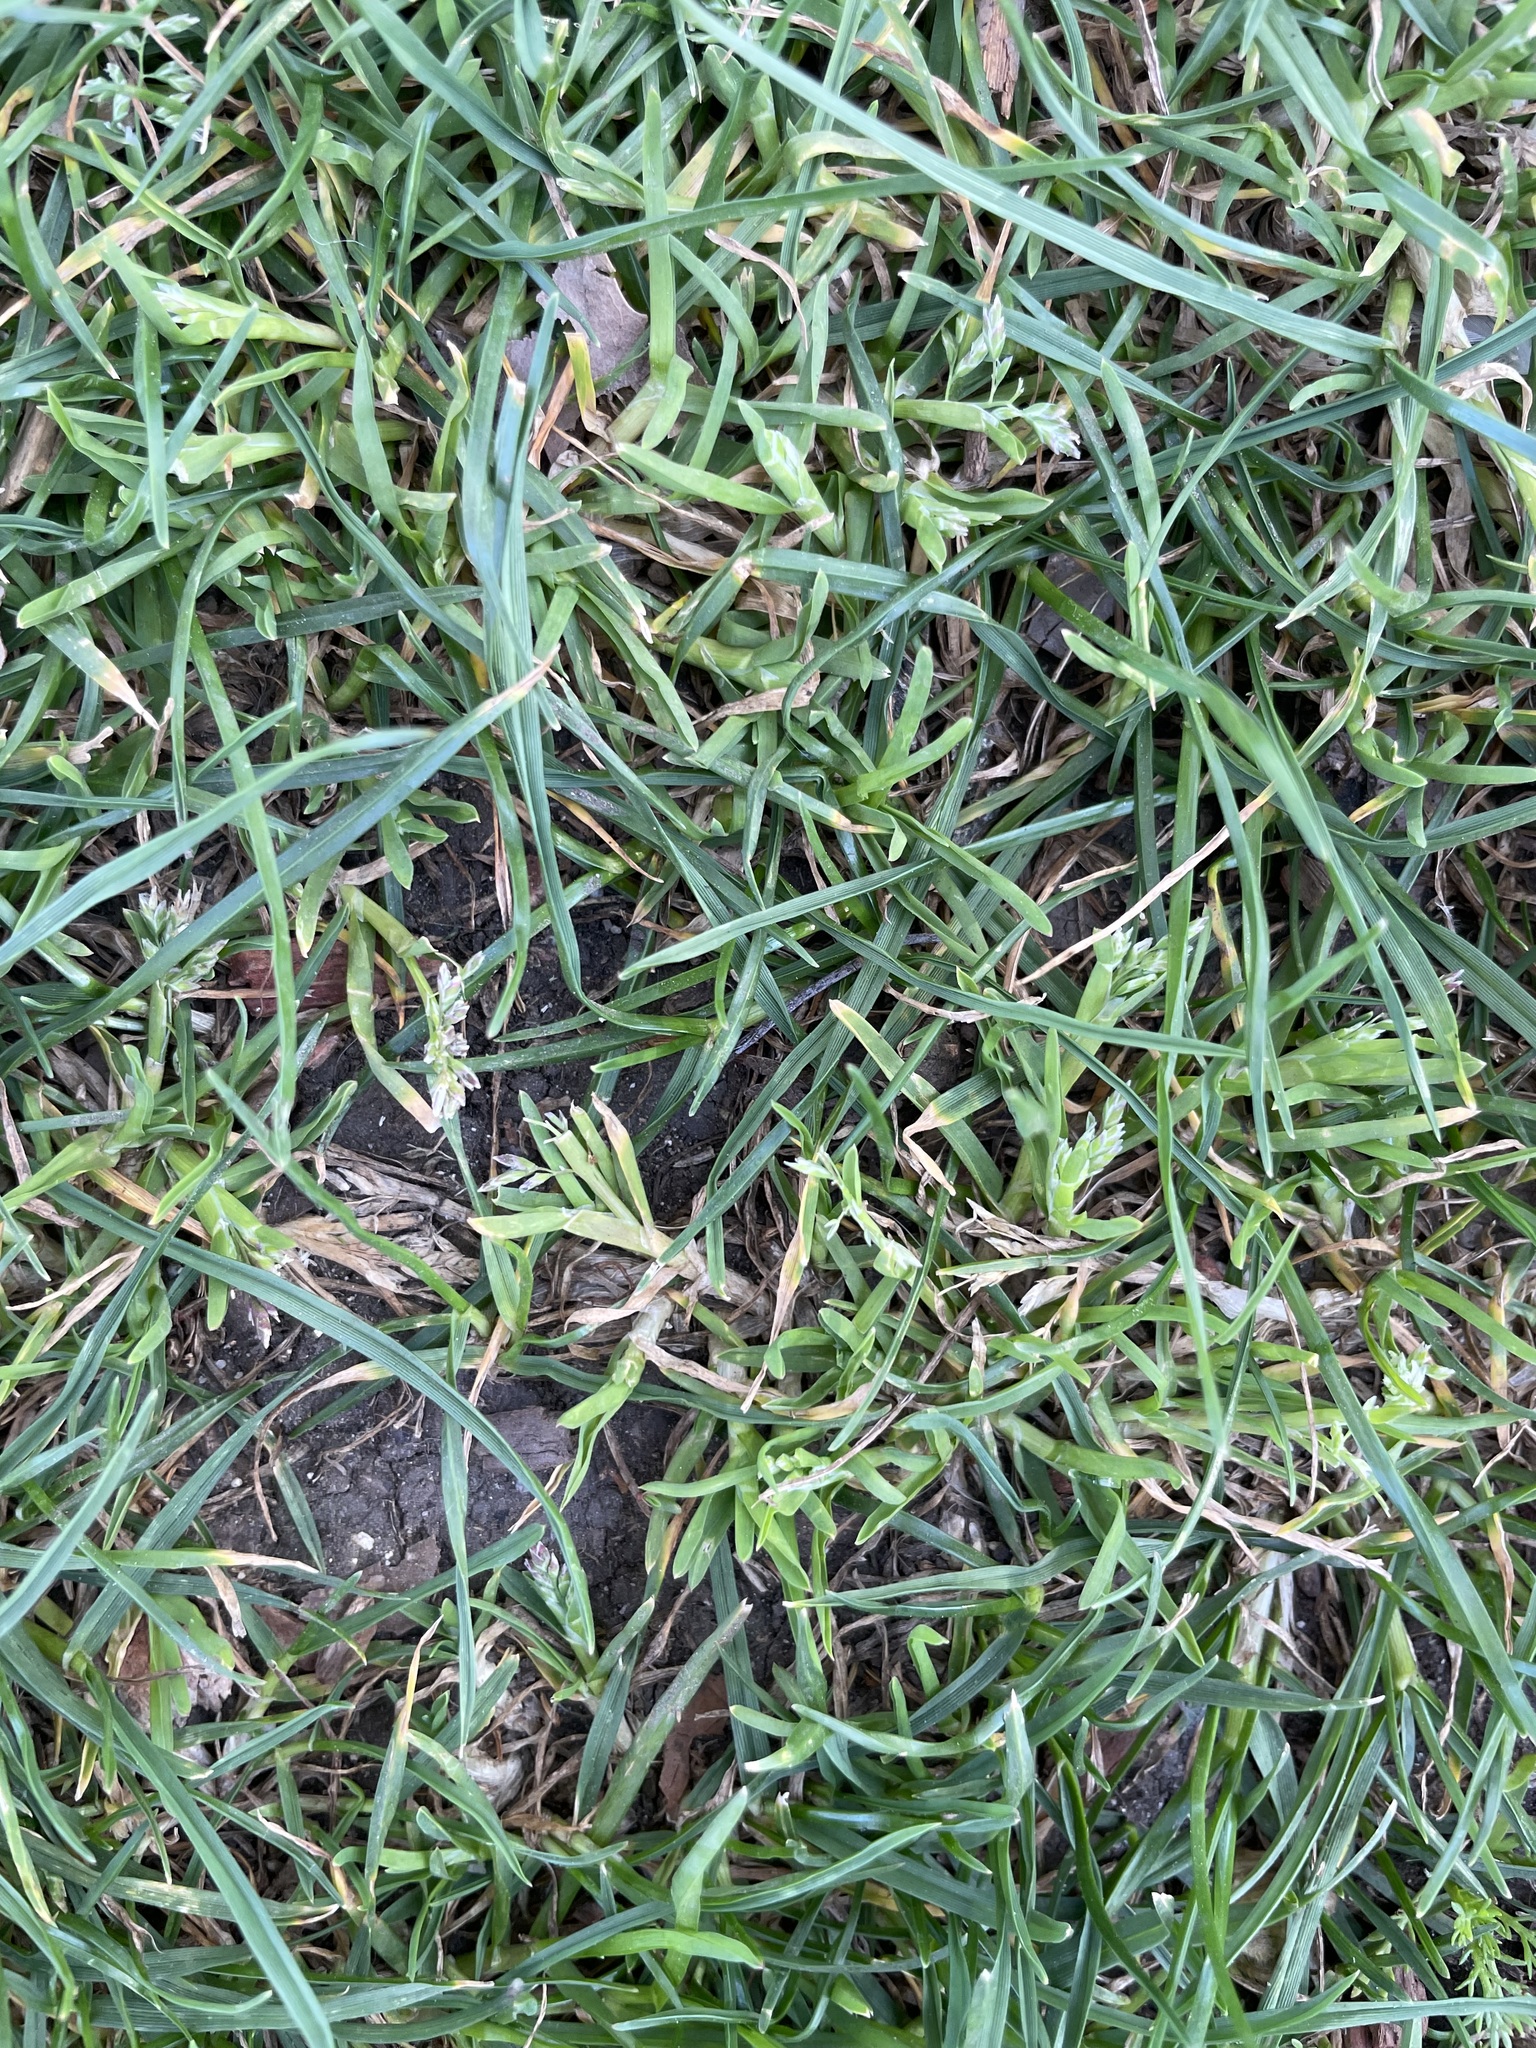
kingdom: Plantae
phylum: Tracheophyta
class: Liliopsida
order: Poales
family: Poaceae
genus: Poa
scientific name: Poa annua
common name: Annual bluegrass
